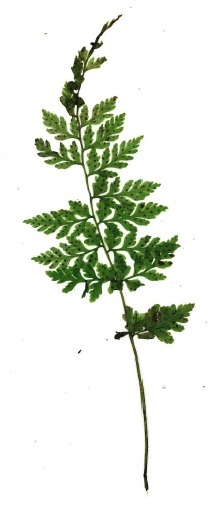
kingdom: Plantae
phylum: Tracheophyta
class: Polypodiopsida
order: Polypodiales
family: Cystopteridaceae
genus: Cystopteris
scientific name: Cystopteris fragilis
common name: Brittle bladder fern
